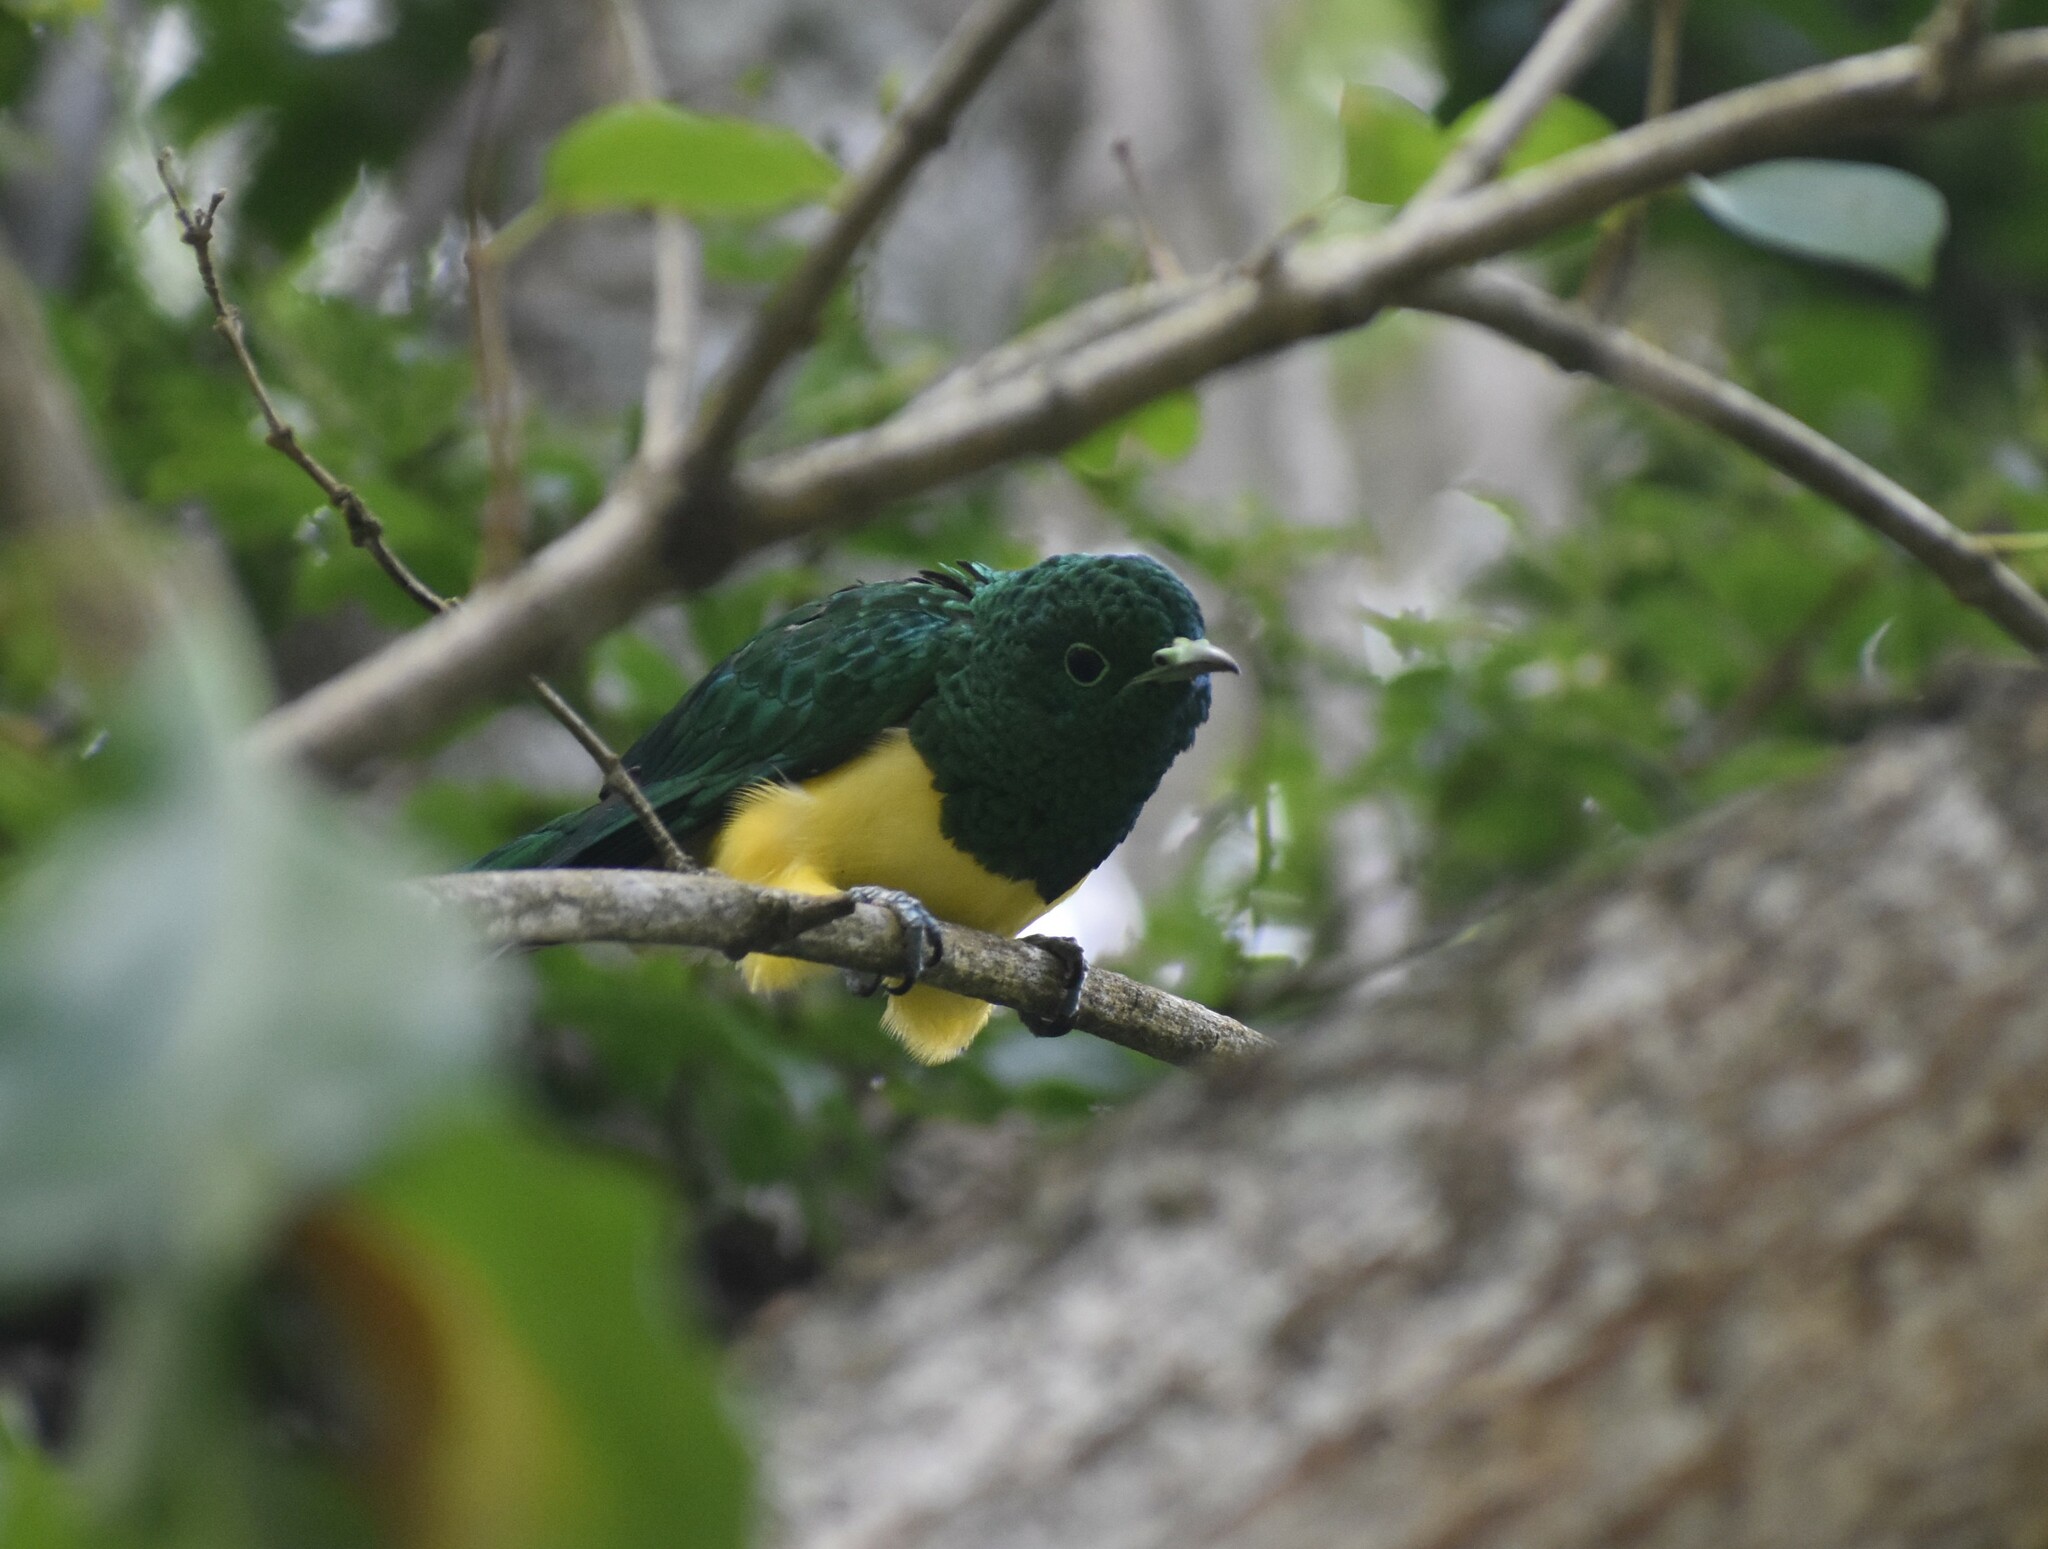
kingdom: Animalia
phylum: Chordata
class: Aves
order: Cuculiformes
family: Cuculidae
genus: Chrysococcyx
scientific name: Chrysococcyx cupreus
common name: African emerald cuckoo
